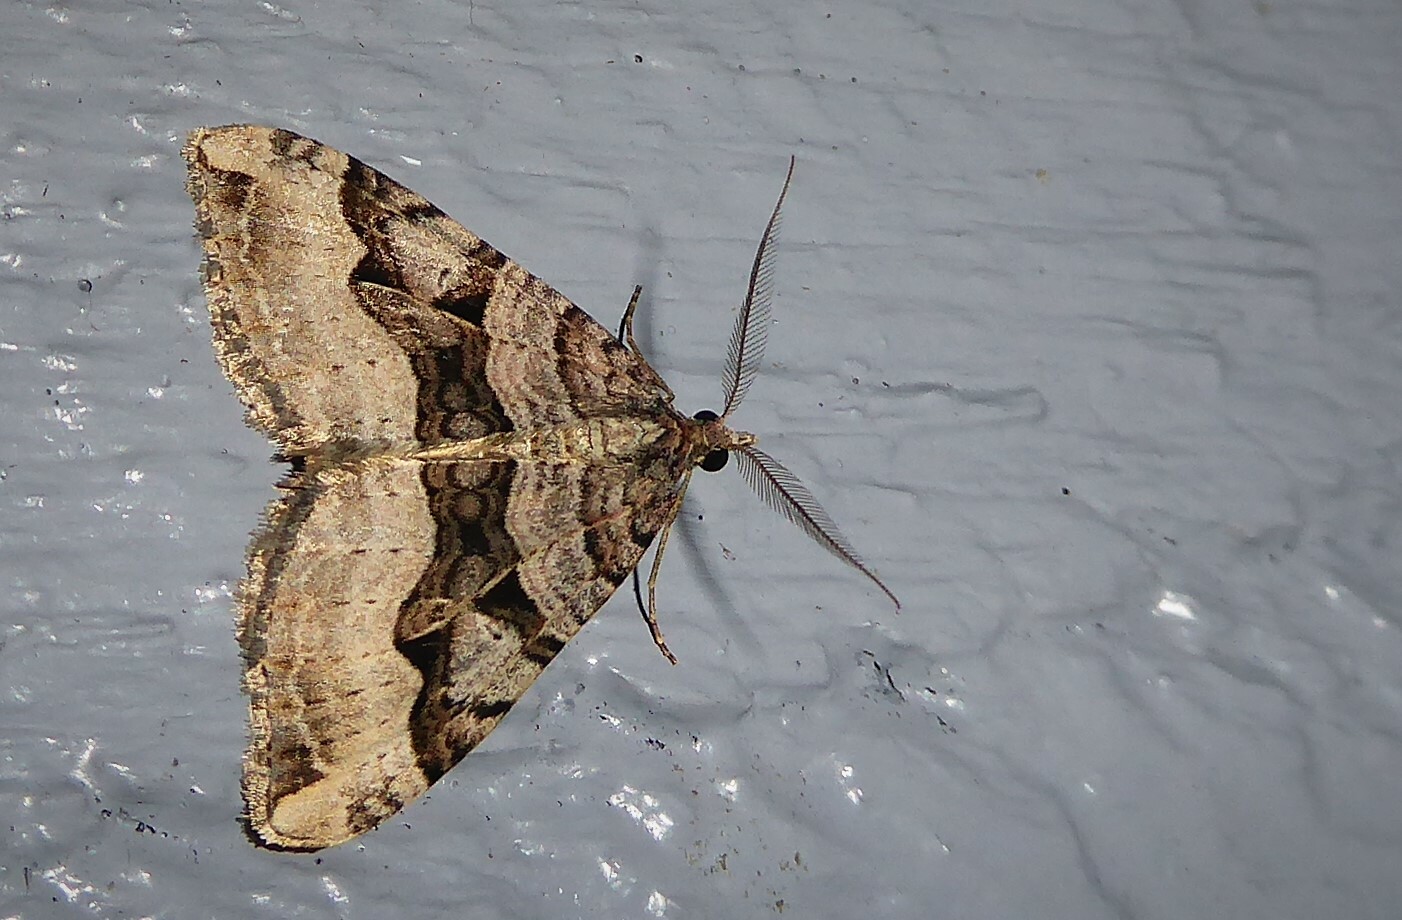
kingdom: Animalia
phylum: Arthropoda
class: Insecta
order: Lepidoptera
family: Geometridae
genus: Xanthorhoe
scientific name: Xanthorhoe semifissata
